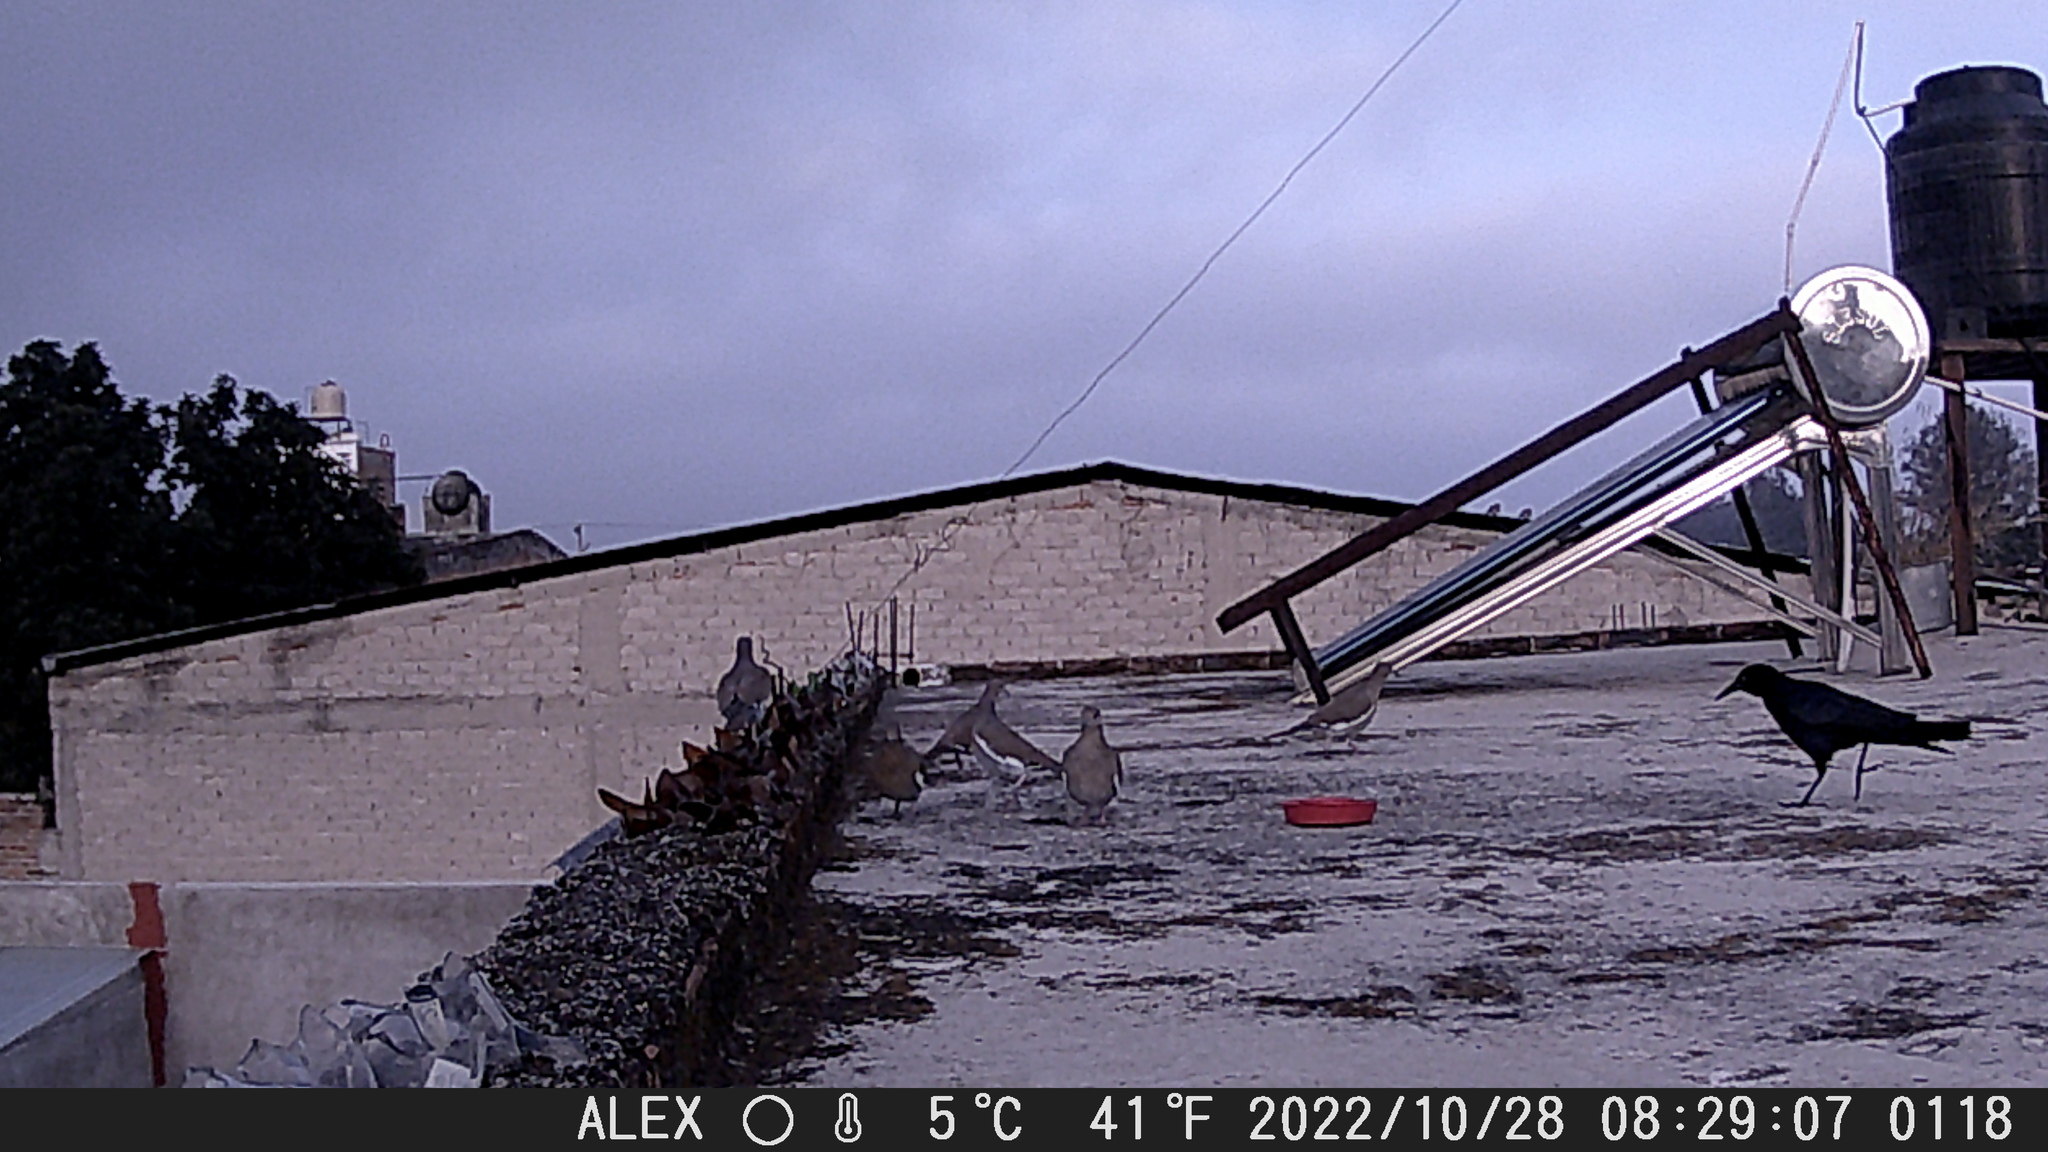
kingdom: Animalia
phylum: Chordata
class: Aves
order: Passeriformes
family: Icteridae
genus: Quiscalus
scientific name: Quiscalus mexicanus
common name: Great-tailed grackle
